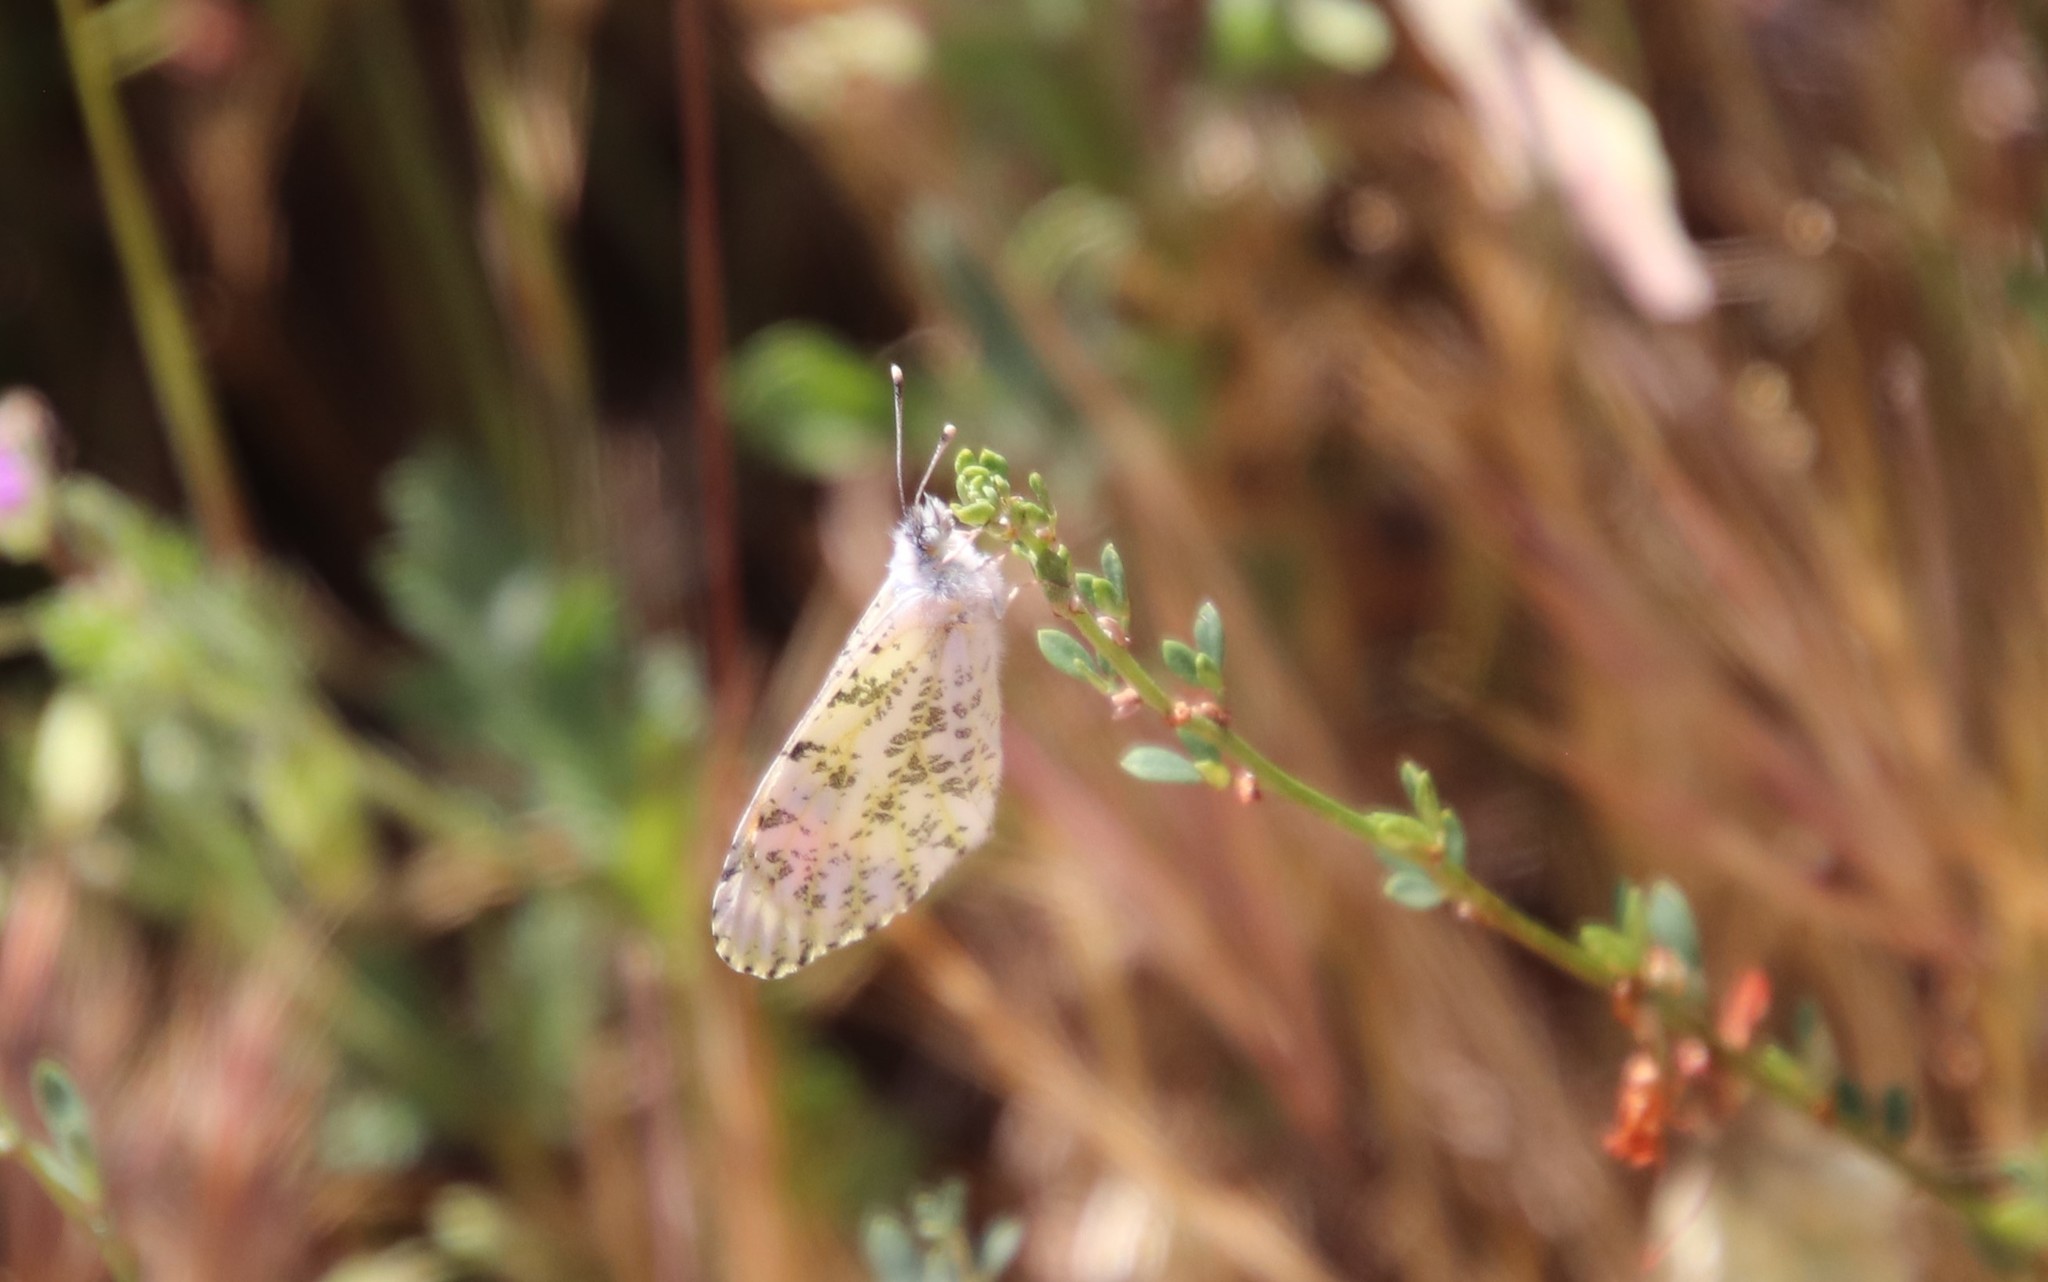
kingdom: Animalia
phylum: Arthropoda
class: Insecta
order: Lepidoptera
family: Pieridae
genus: Anthocharis
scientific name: Anthocharis sara
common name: Sara's orangetip
